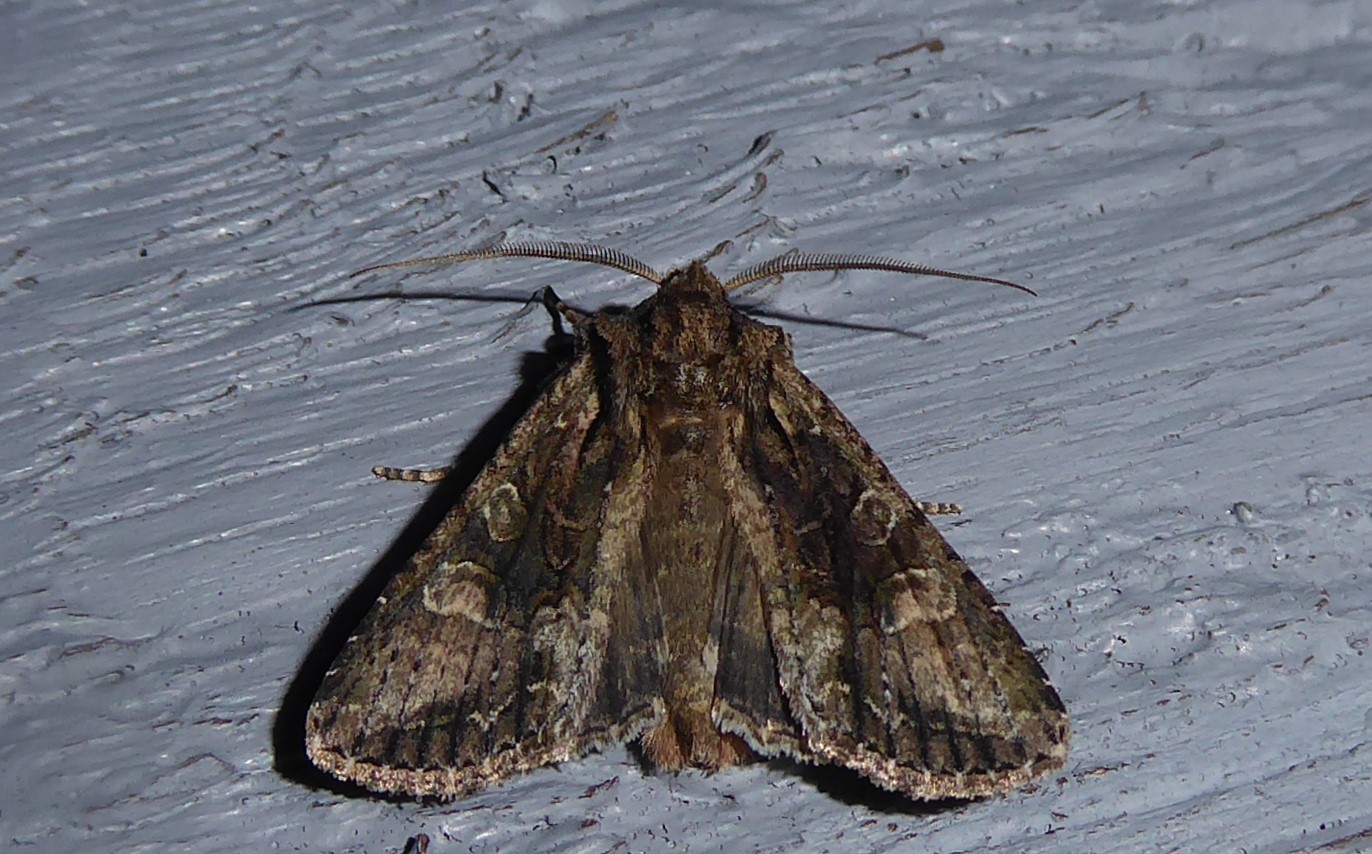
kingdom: Animalia
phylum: Arthropoda
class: Insecta
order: Lepidoptera
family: Noctuidae
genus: Ichneutica
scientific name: Ichneutica mutans
